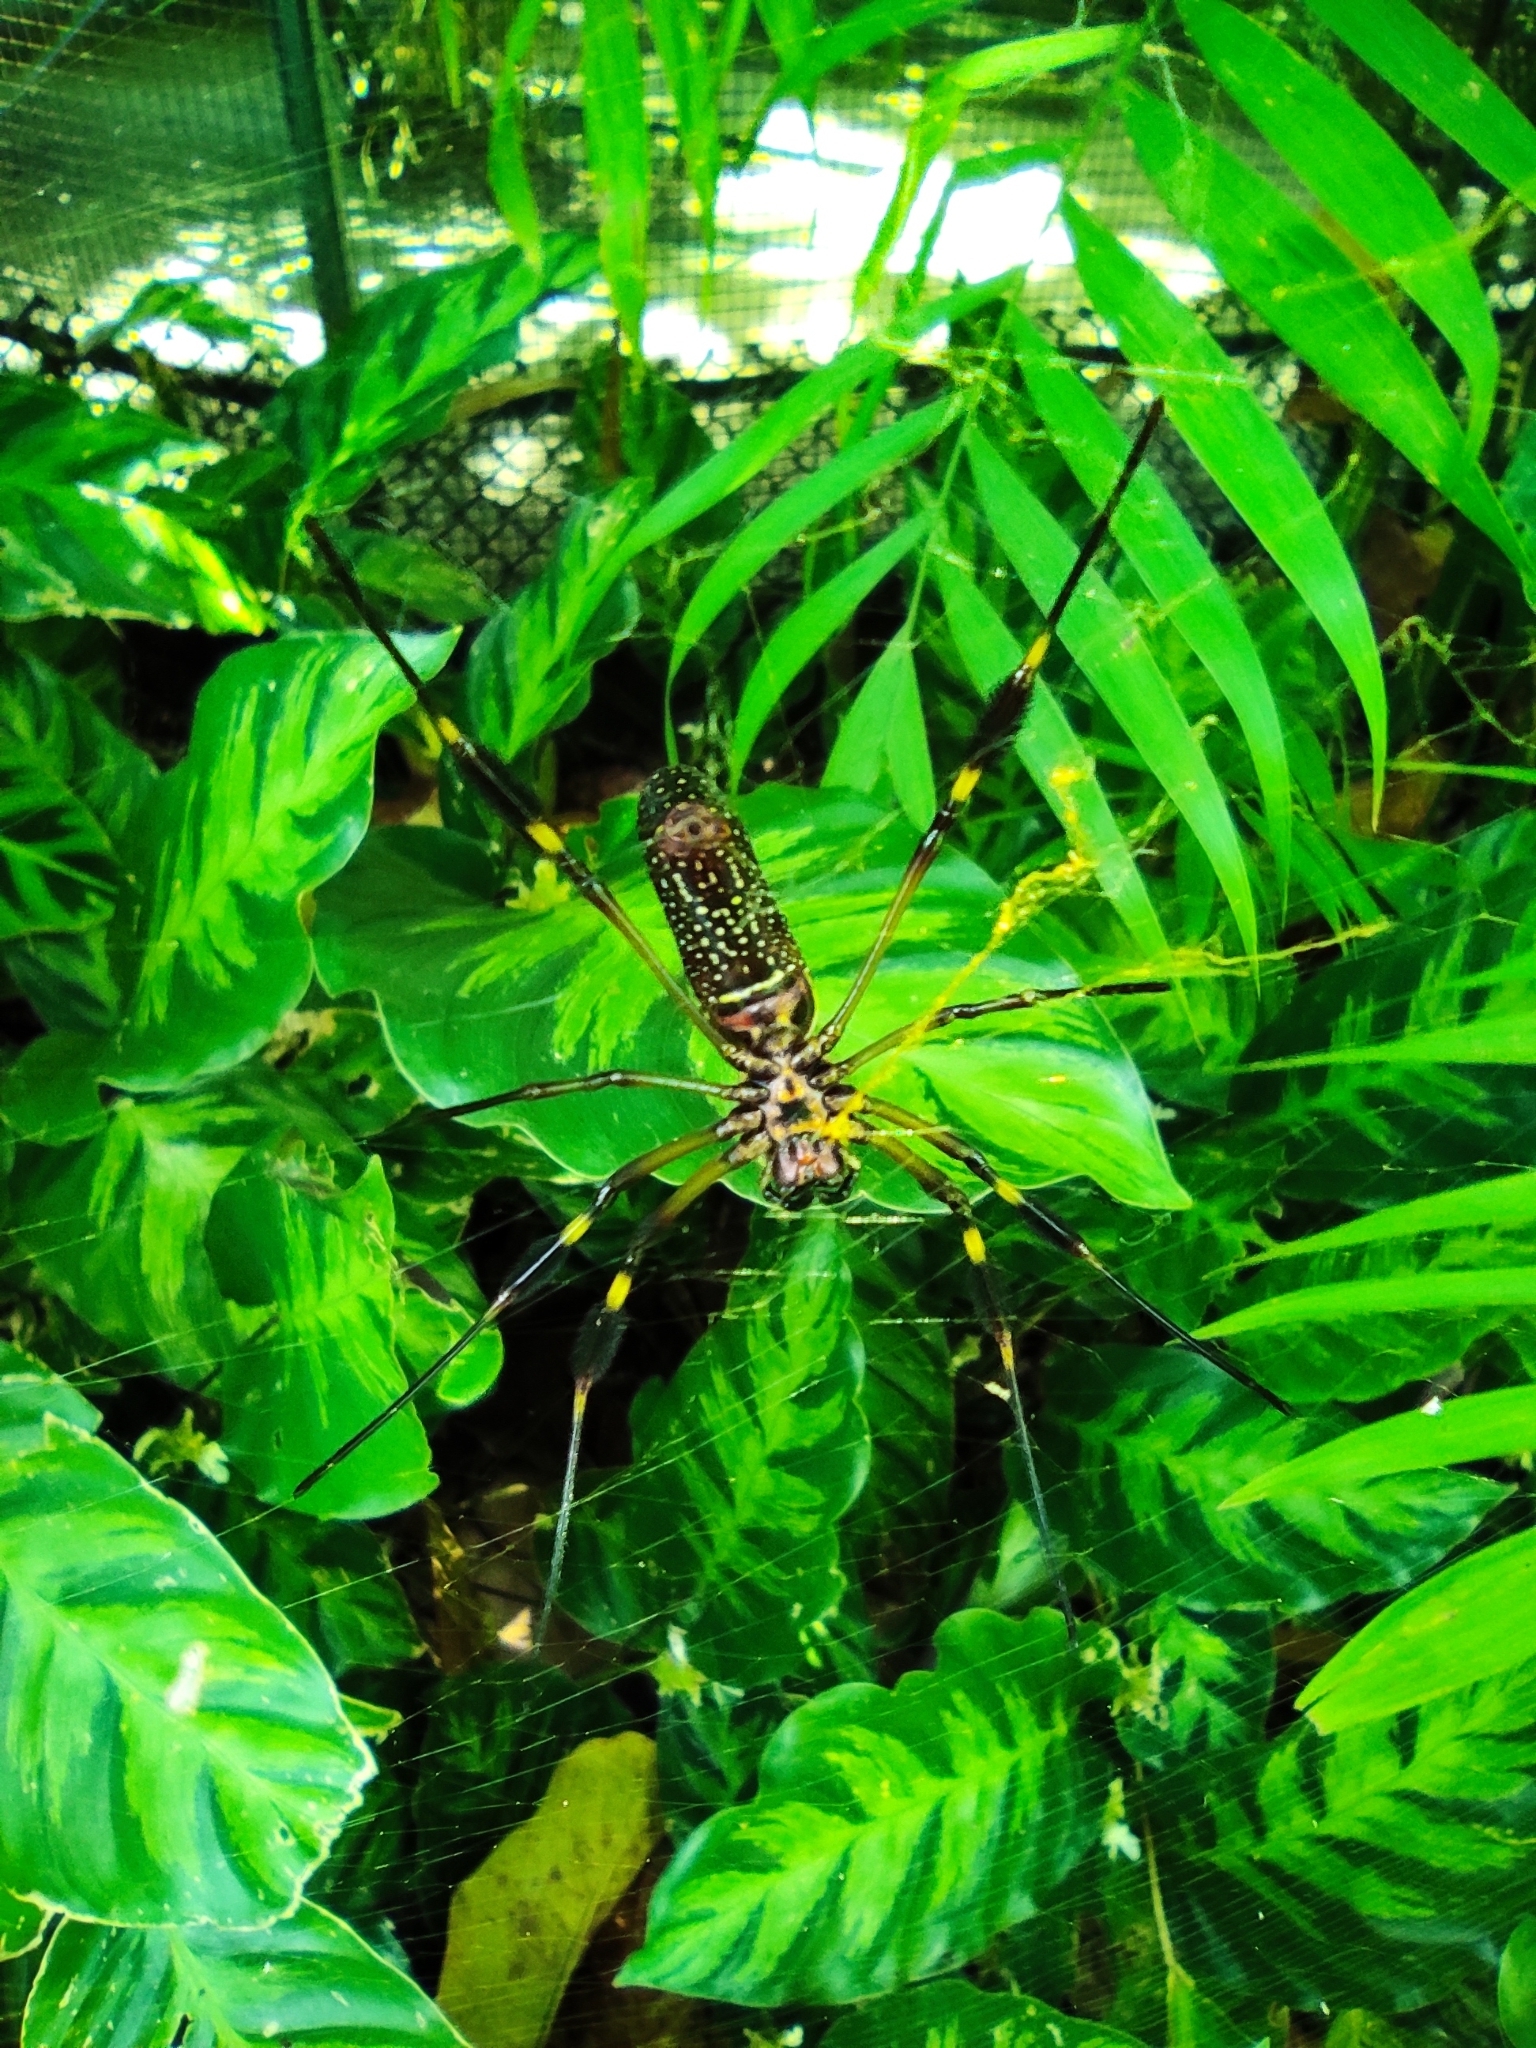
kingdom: Animalia
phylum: Arthropoda
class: Arachnida
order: Araneae
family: Araneidae
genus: Trichonephila
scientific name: Trichonephila clavipes
